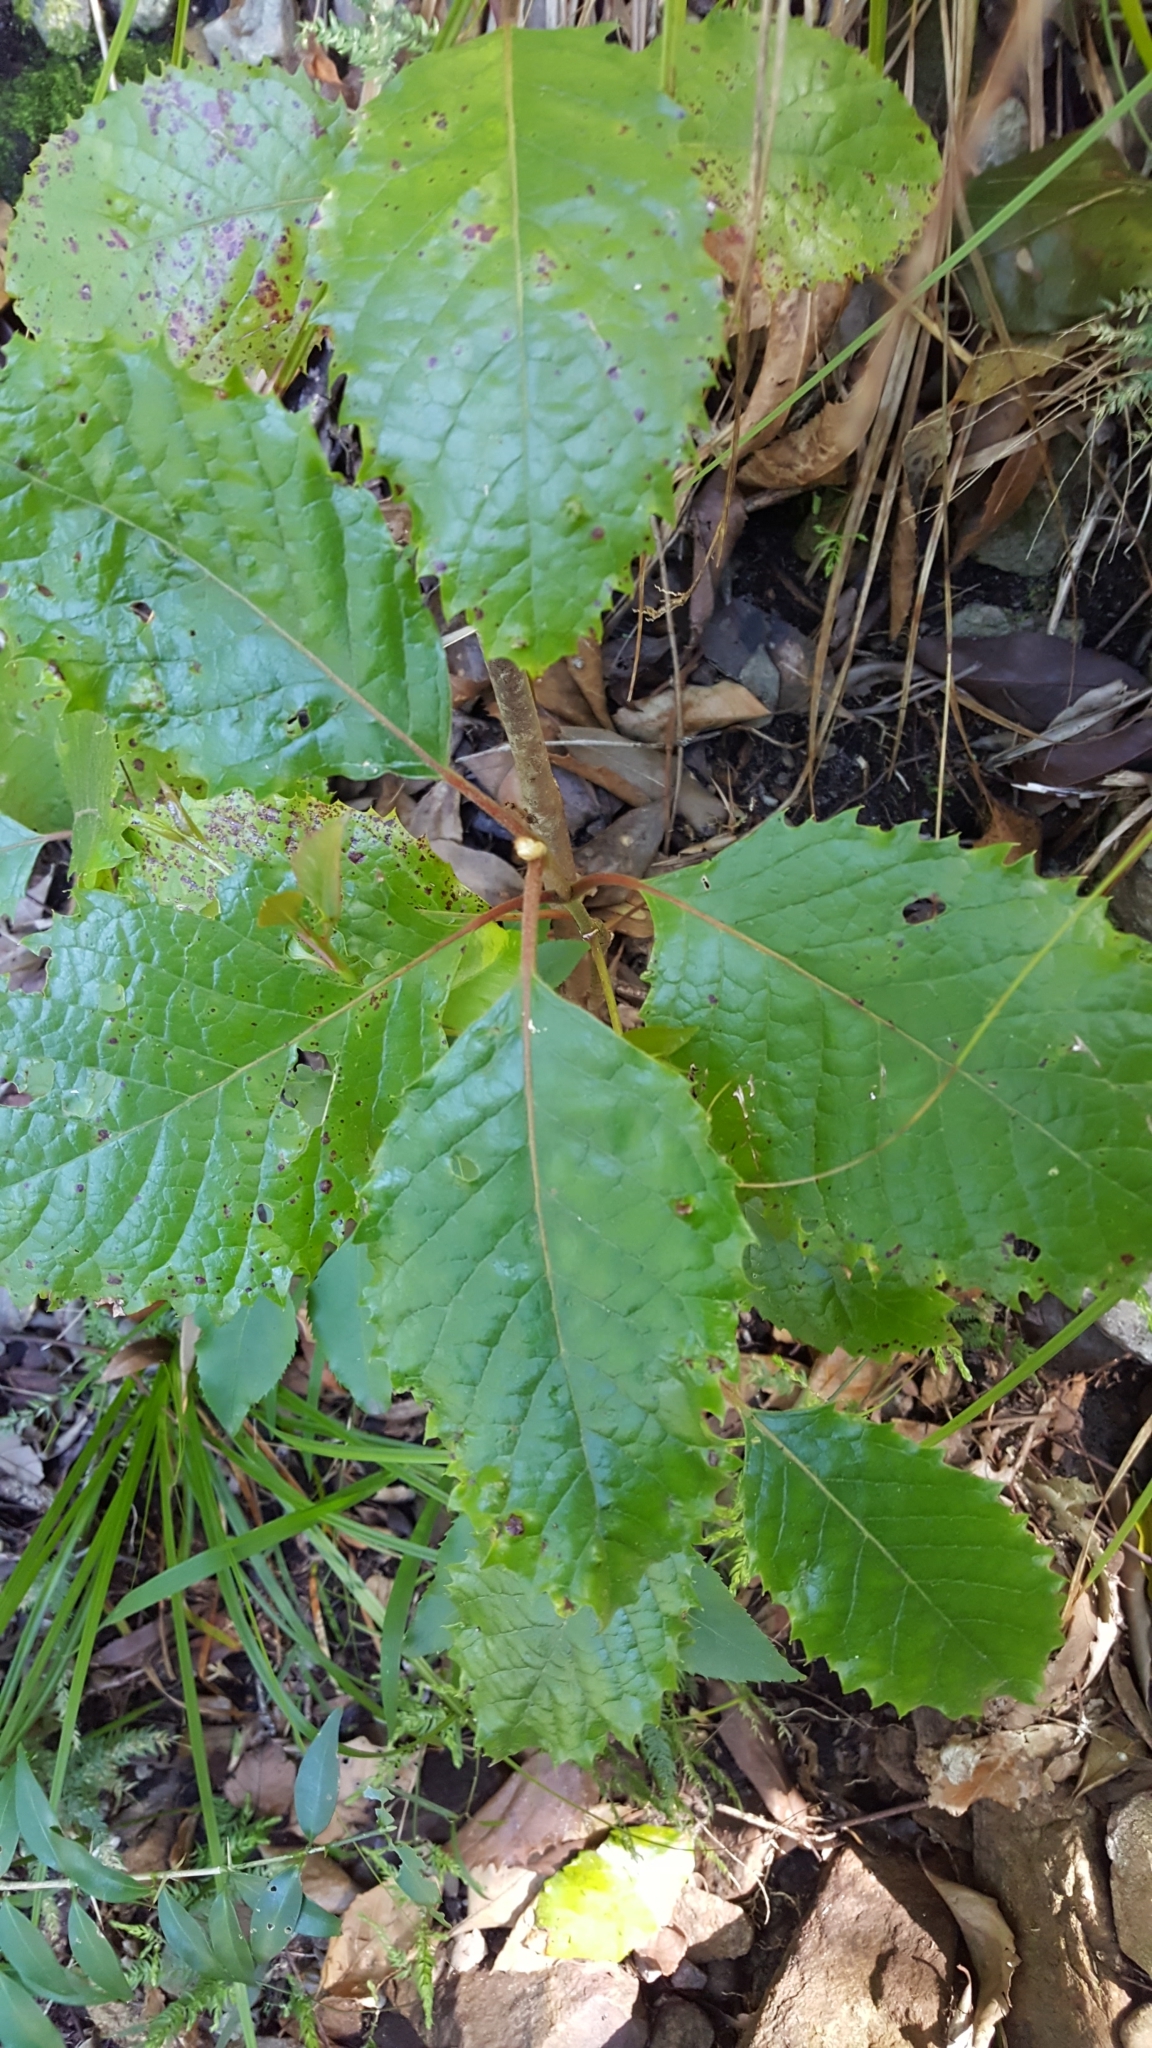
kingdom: Plantae
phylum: Tracheophyta
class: Magnoliopsida
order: Cornales
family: Curtisiaceae
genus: Curtisia
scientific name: Curtisia dentata
